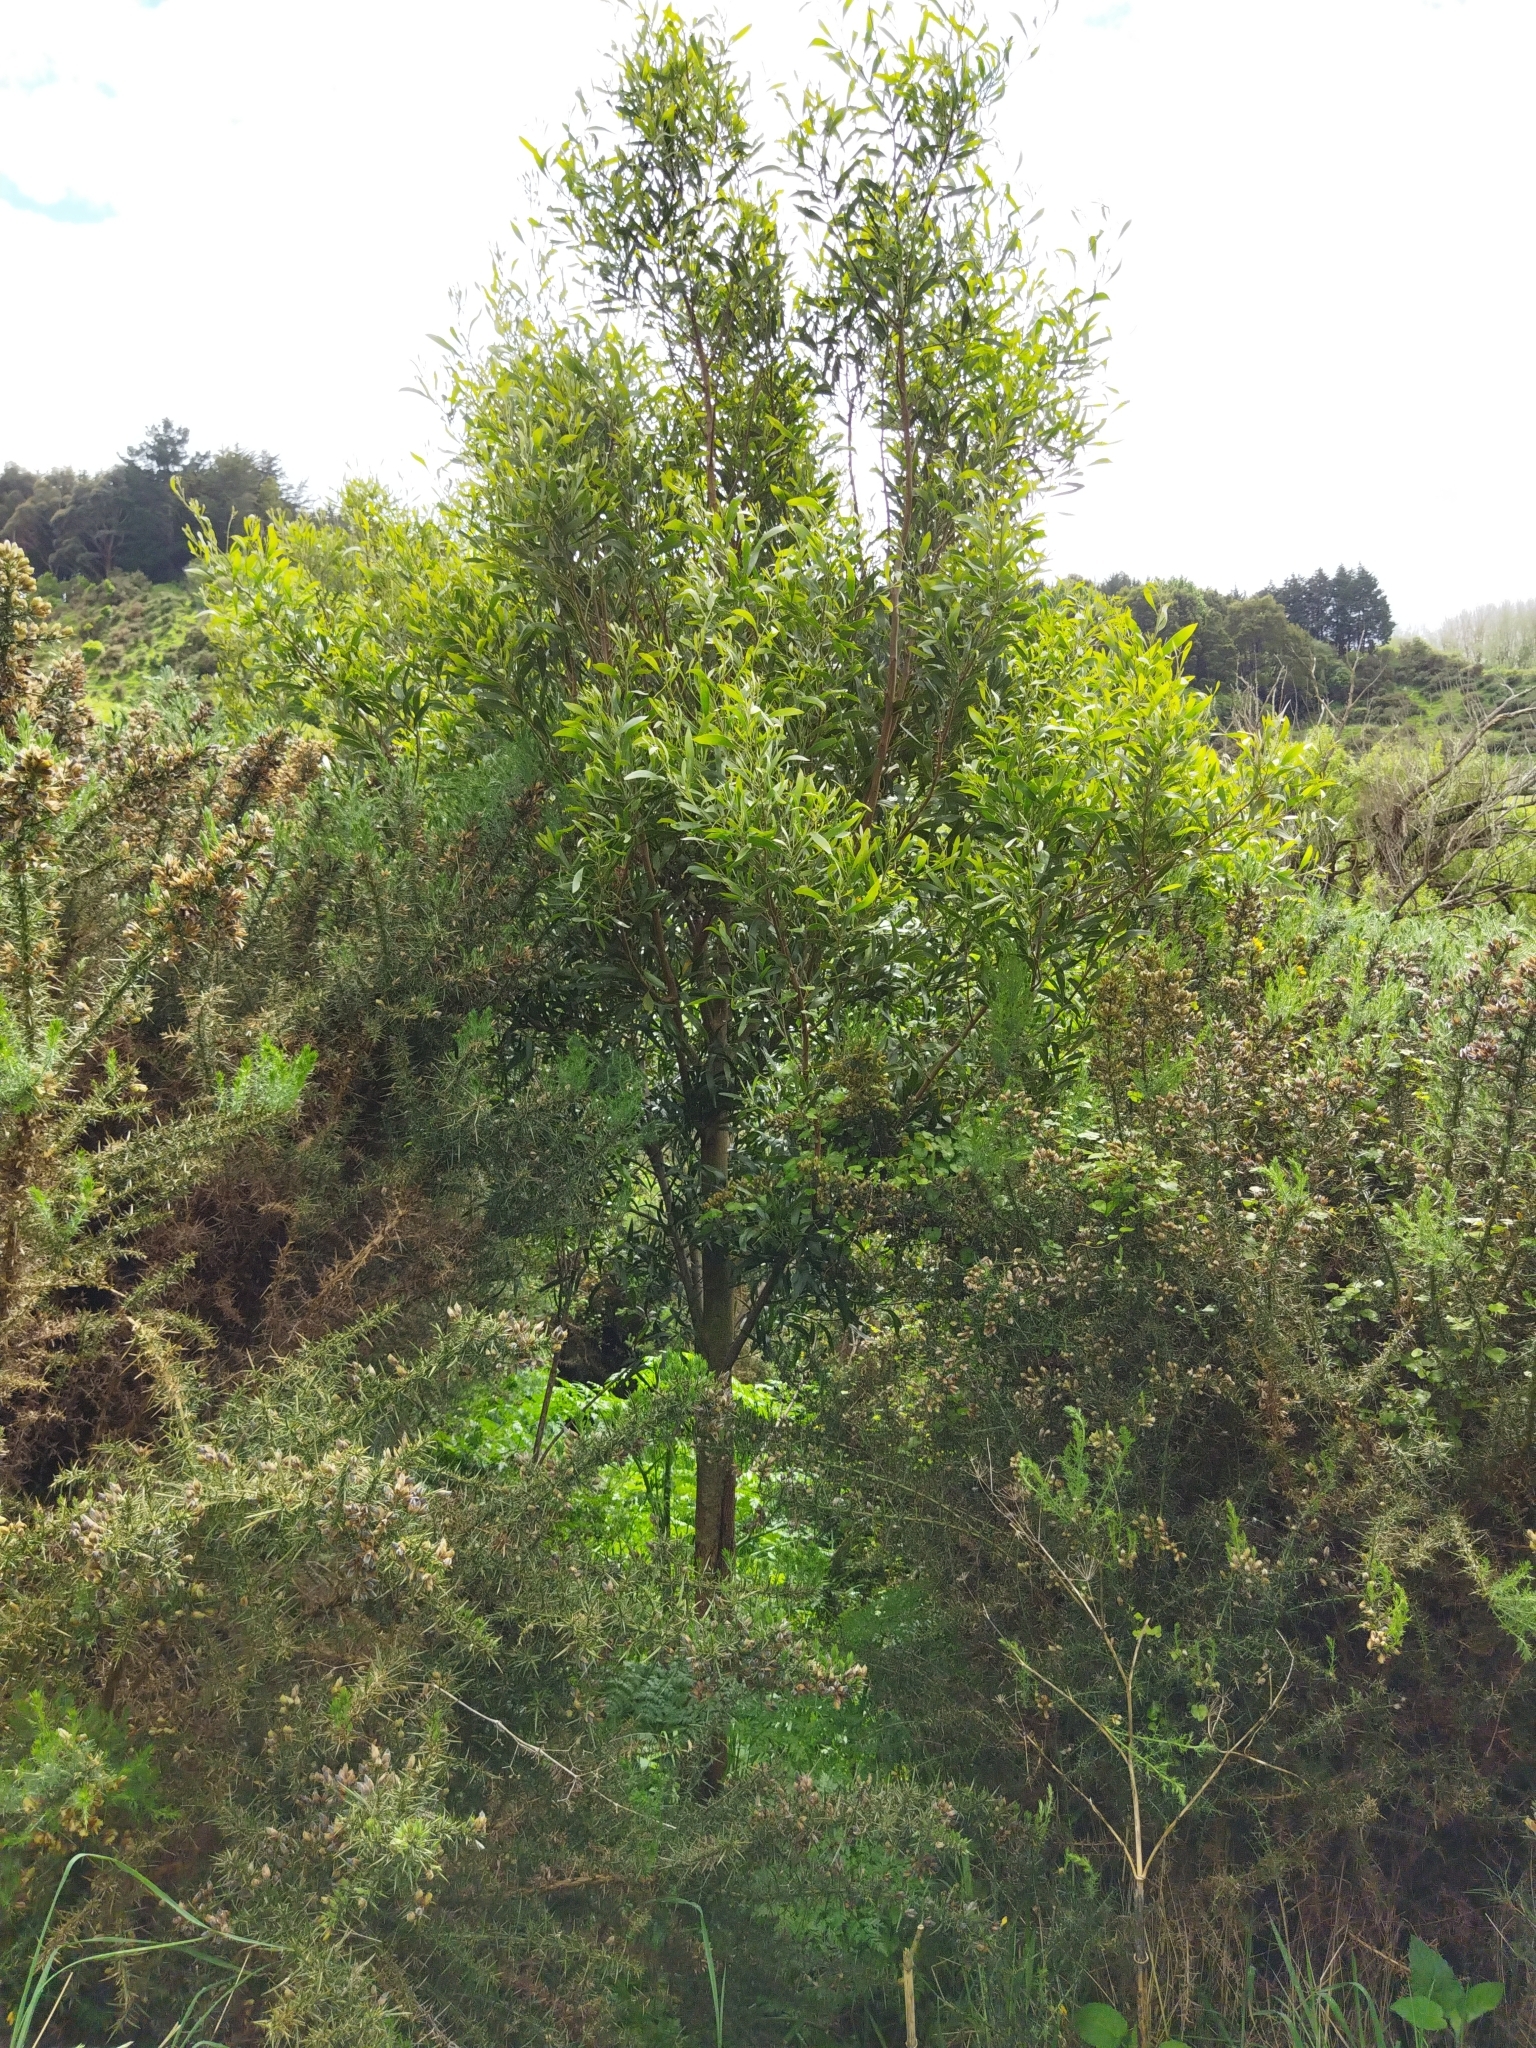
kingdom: Plantae
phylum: Tracheophyta
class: Magnoliopsida
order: Fabales
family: Fabaceae
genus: Acacia
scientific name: Acacia melanoxylon
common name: Blackwood
